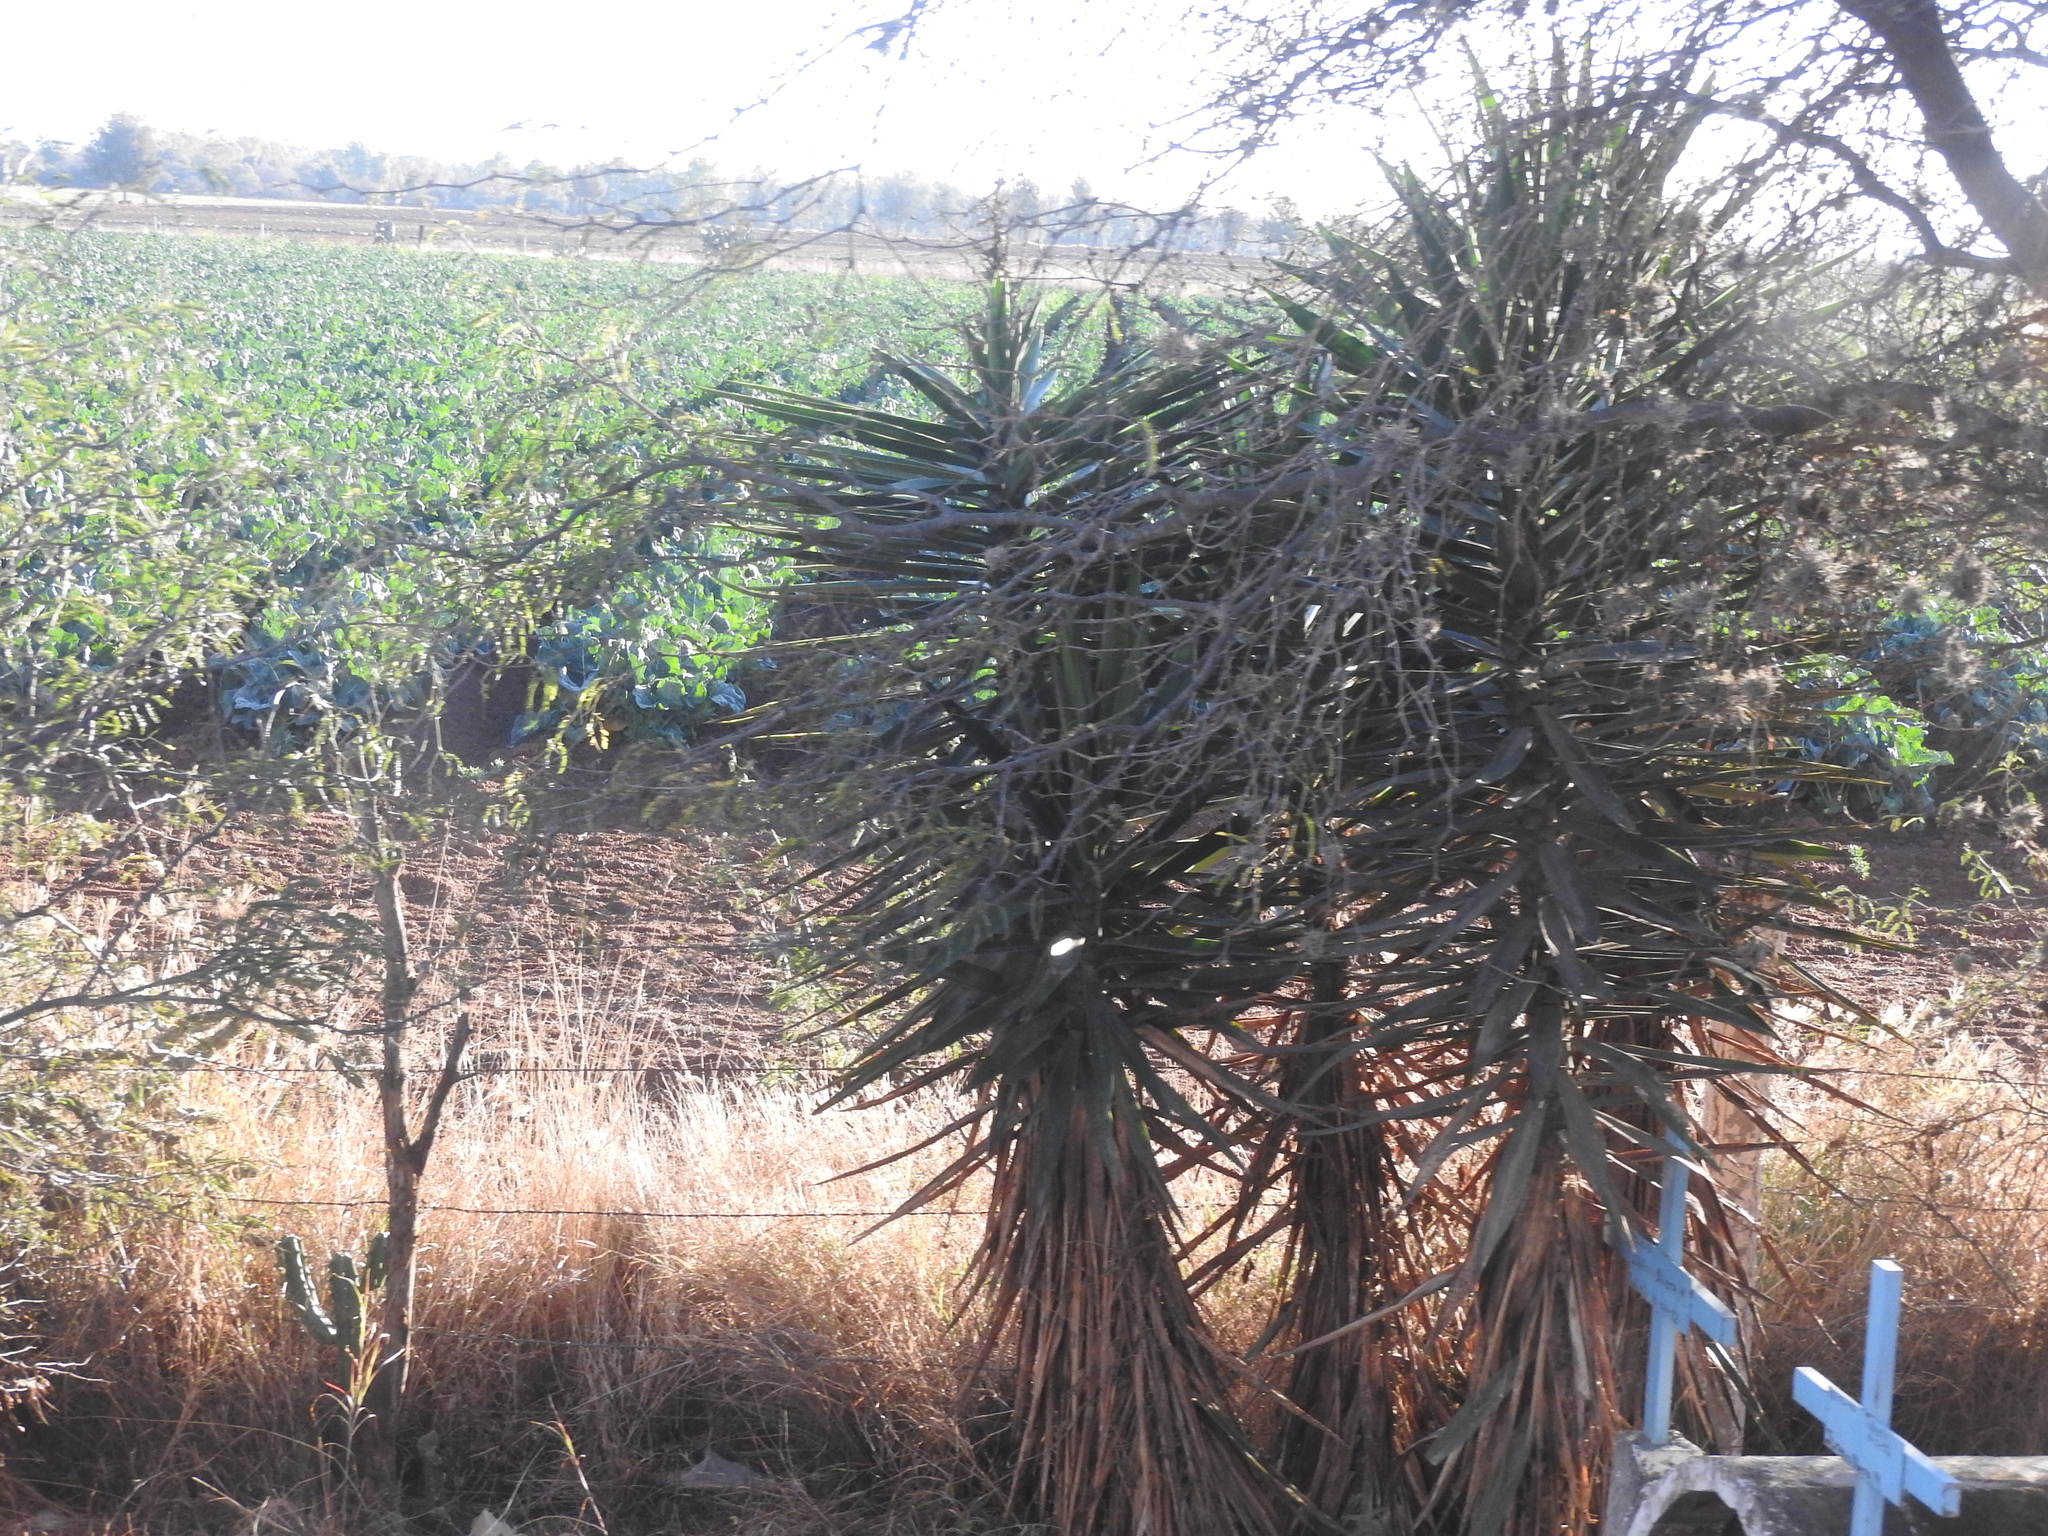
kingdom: Plantae
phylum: Tracheophyta
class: Liliopsida
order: Asparagales
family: Asparagaceae
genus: Yucca
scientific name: Yucca gigantea
